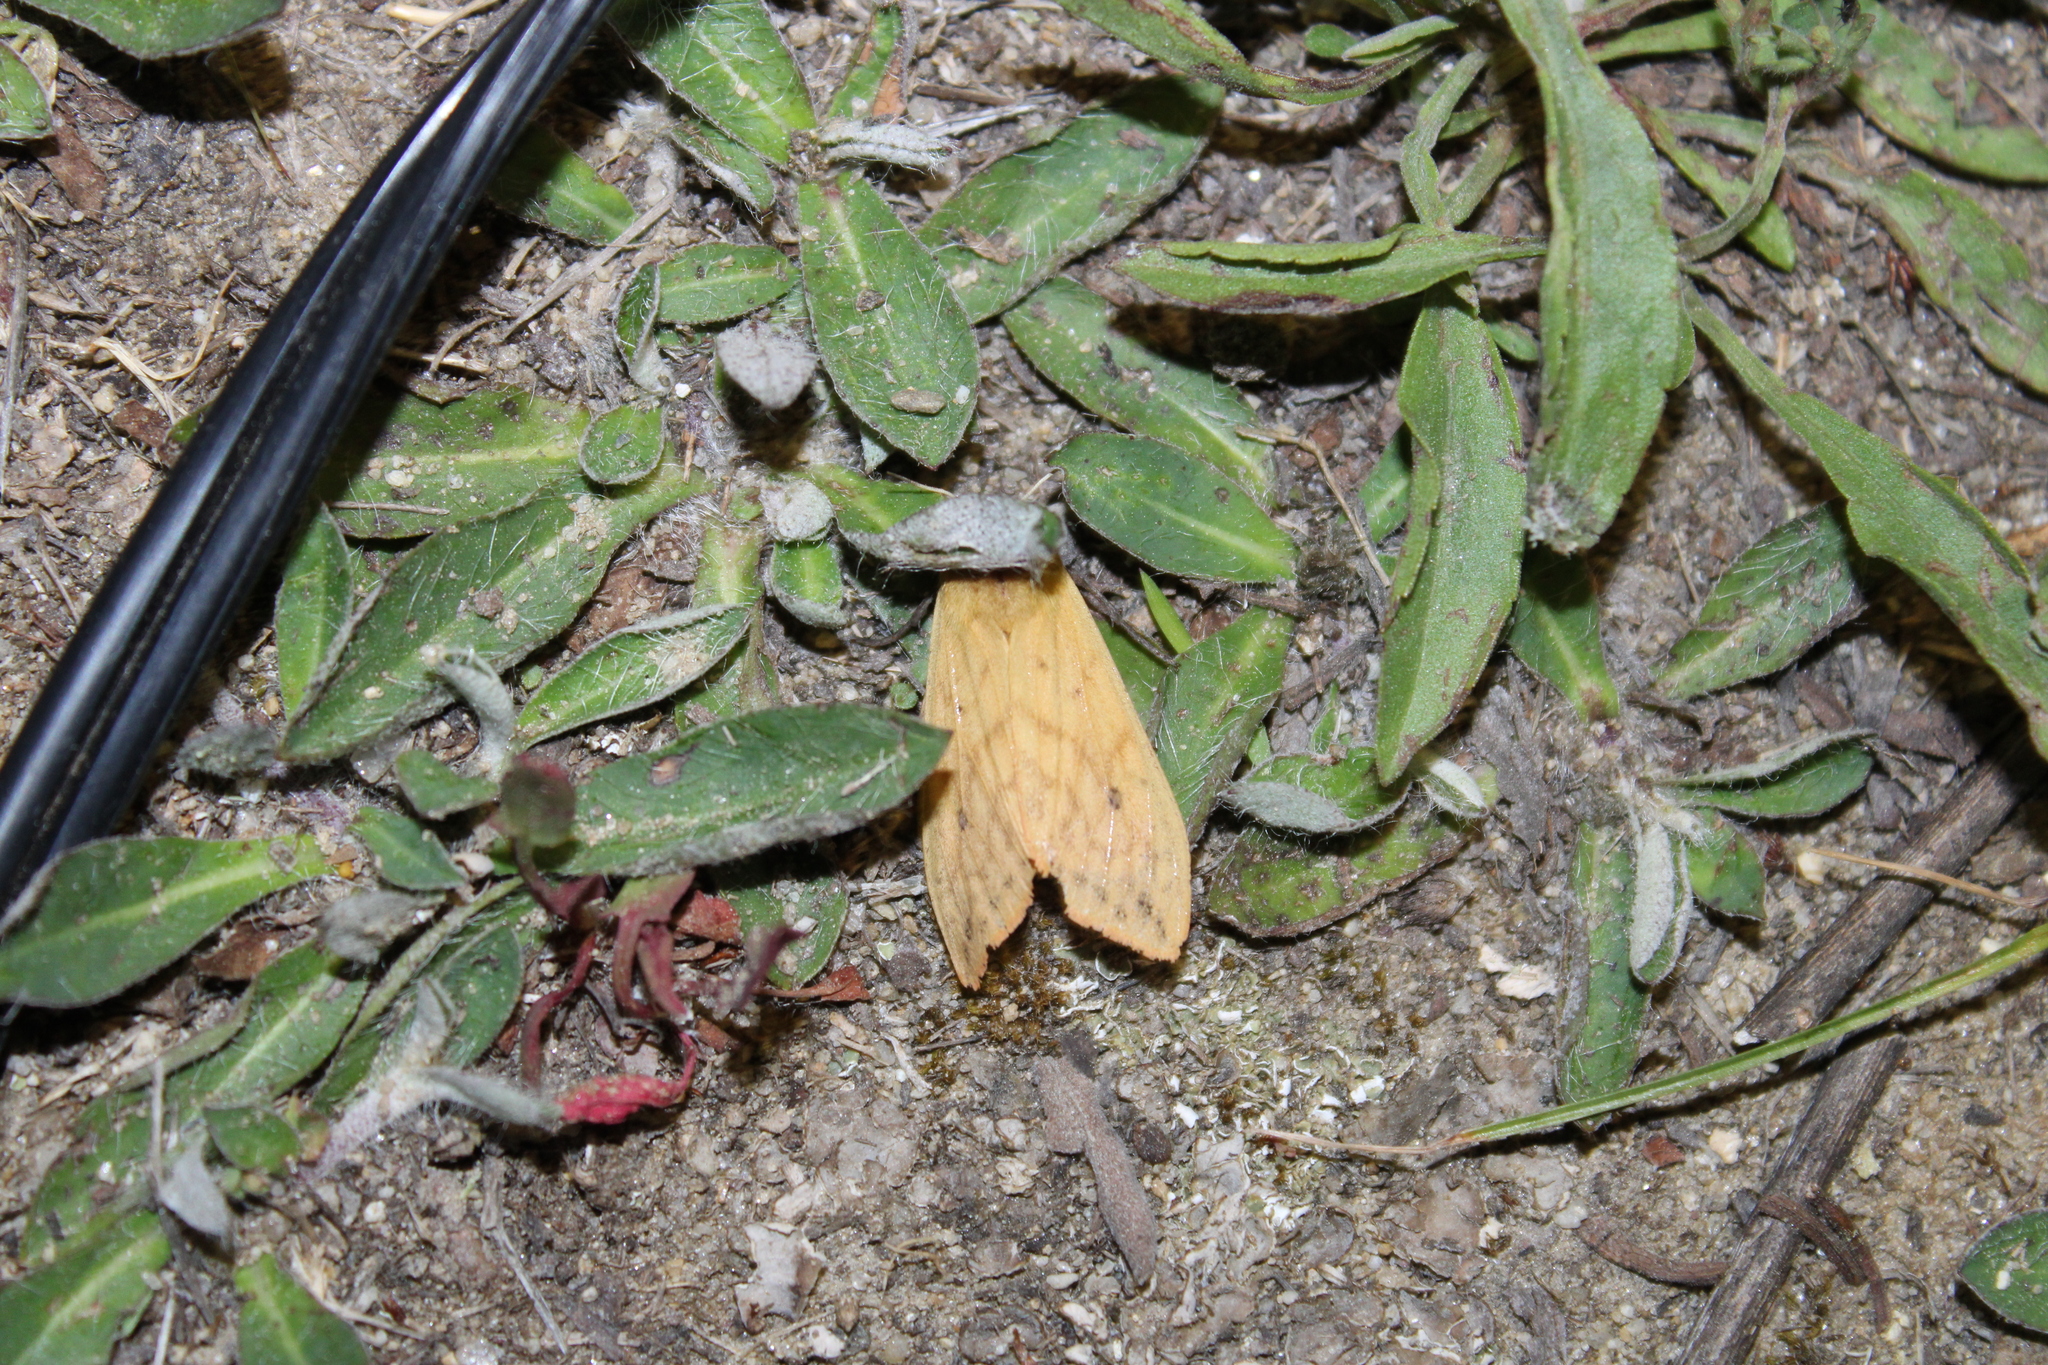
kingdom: Animalia
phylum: Arthropoda
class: Insecta
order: Lepidoptera
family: Erebidae
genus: Pyrrharctia
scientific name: Pyrrharctia isabella
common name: Isabella tiger moth
